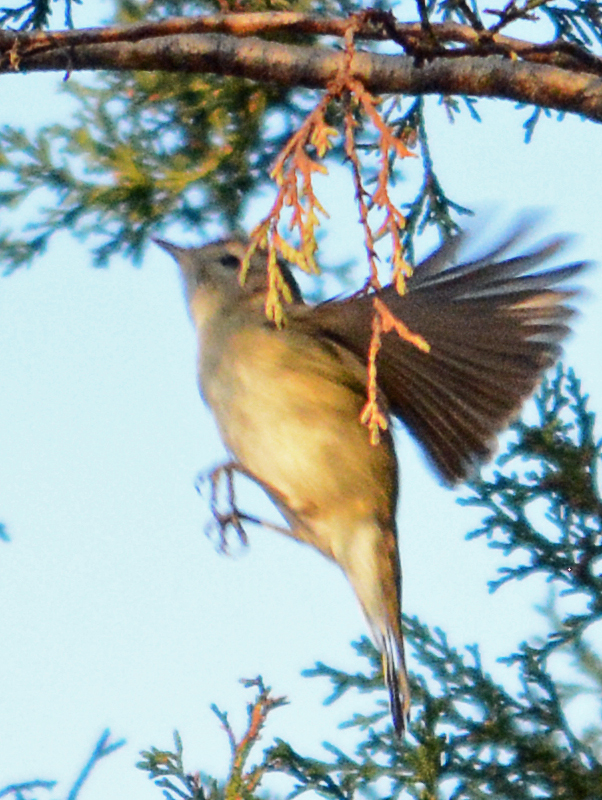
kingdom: Animalia
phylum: Chordata
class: Aves
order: Passeriformes
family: Vireonidae
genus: Vireo
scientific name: Vireo gilvus
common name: Warbling vireo
